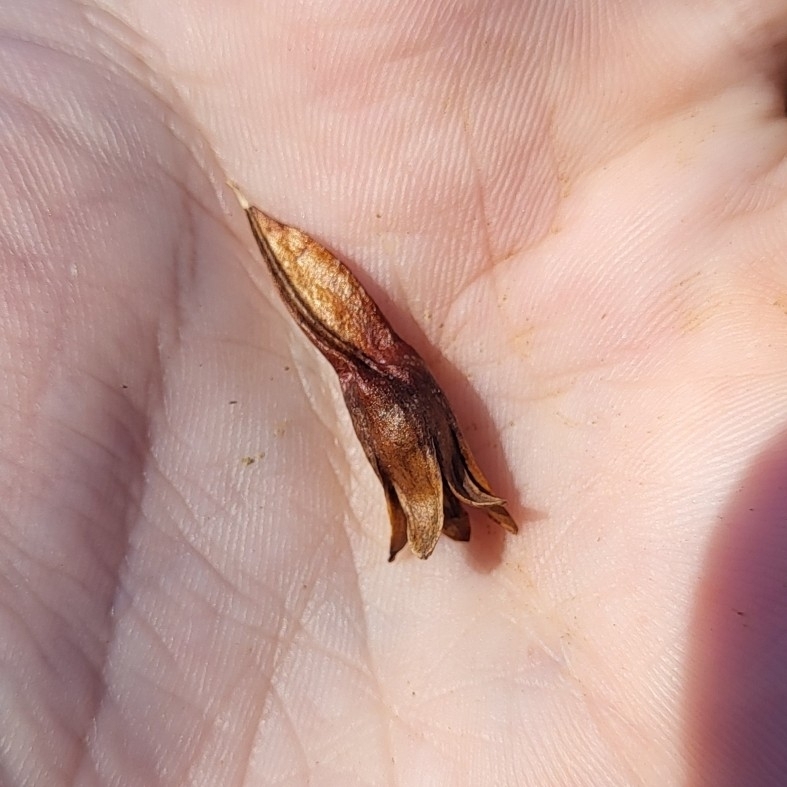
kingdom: Plantae
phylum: Tracheophyta
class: Magnoliopsida
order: Caryophyllales
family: Polygonaceae
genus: Brunnichia
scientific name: Brunnichia ovata
